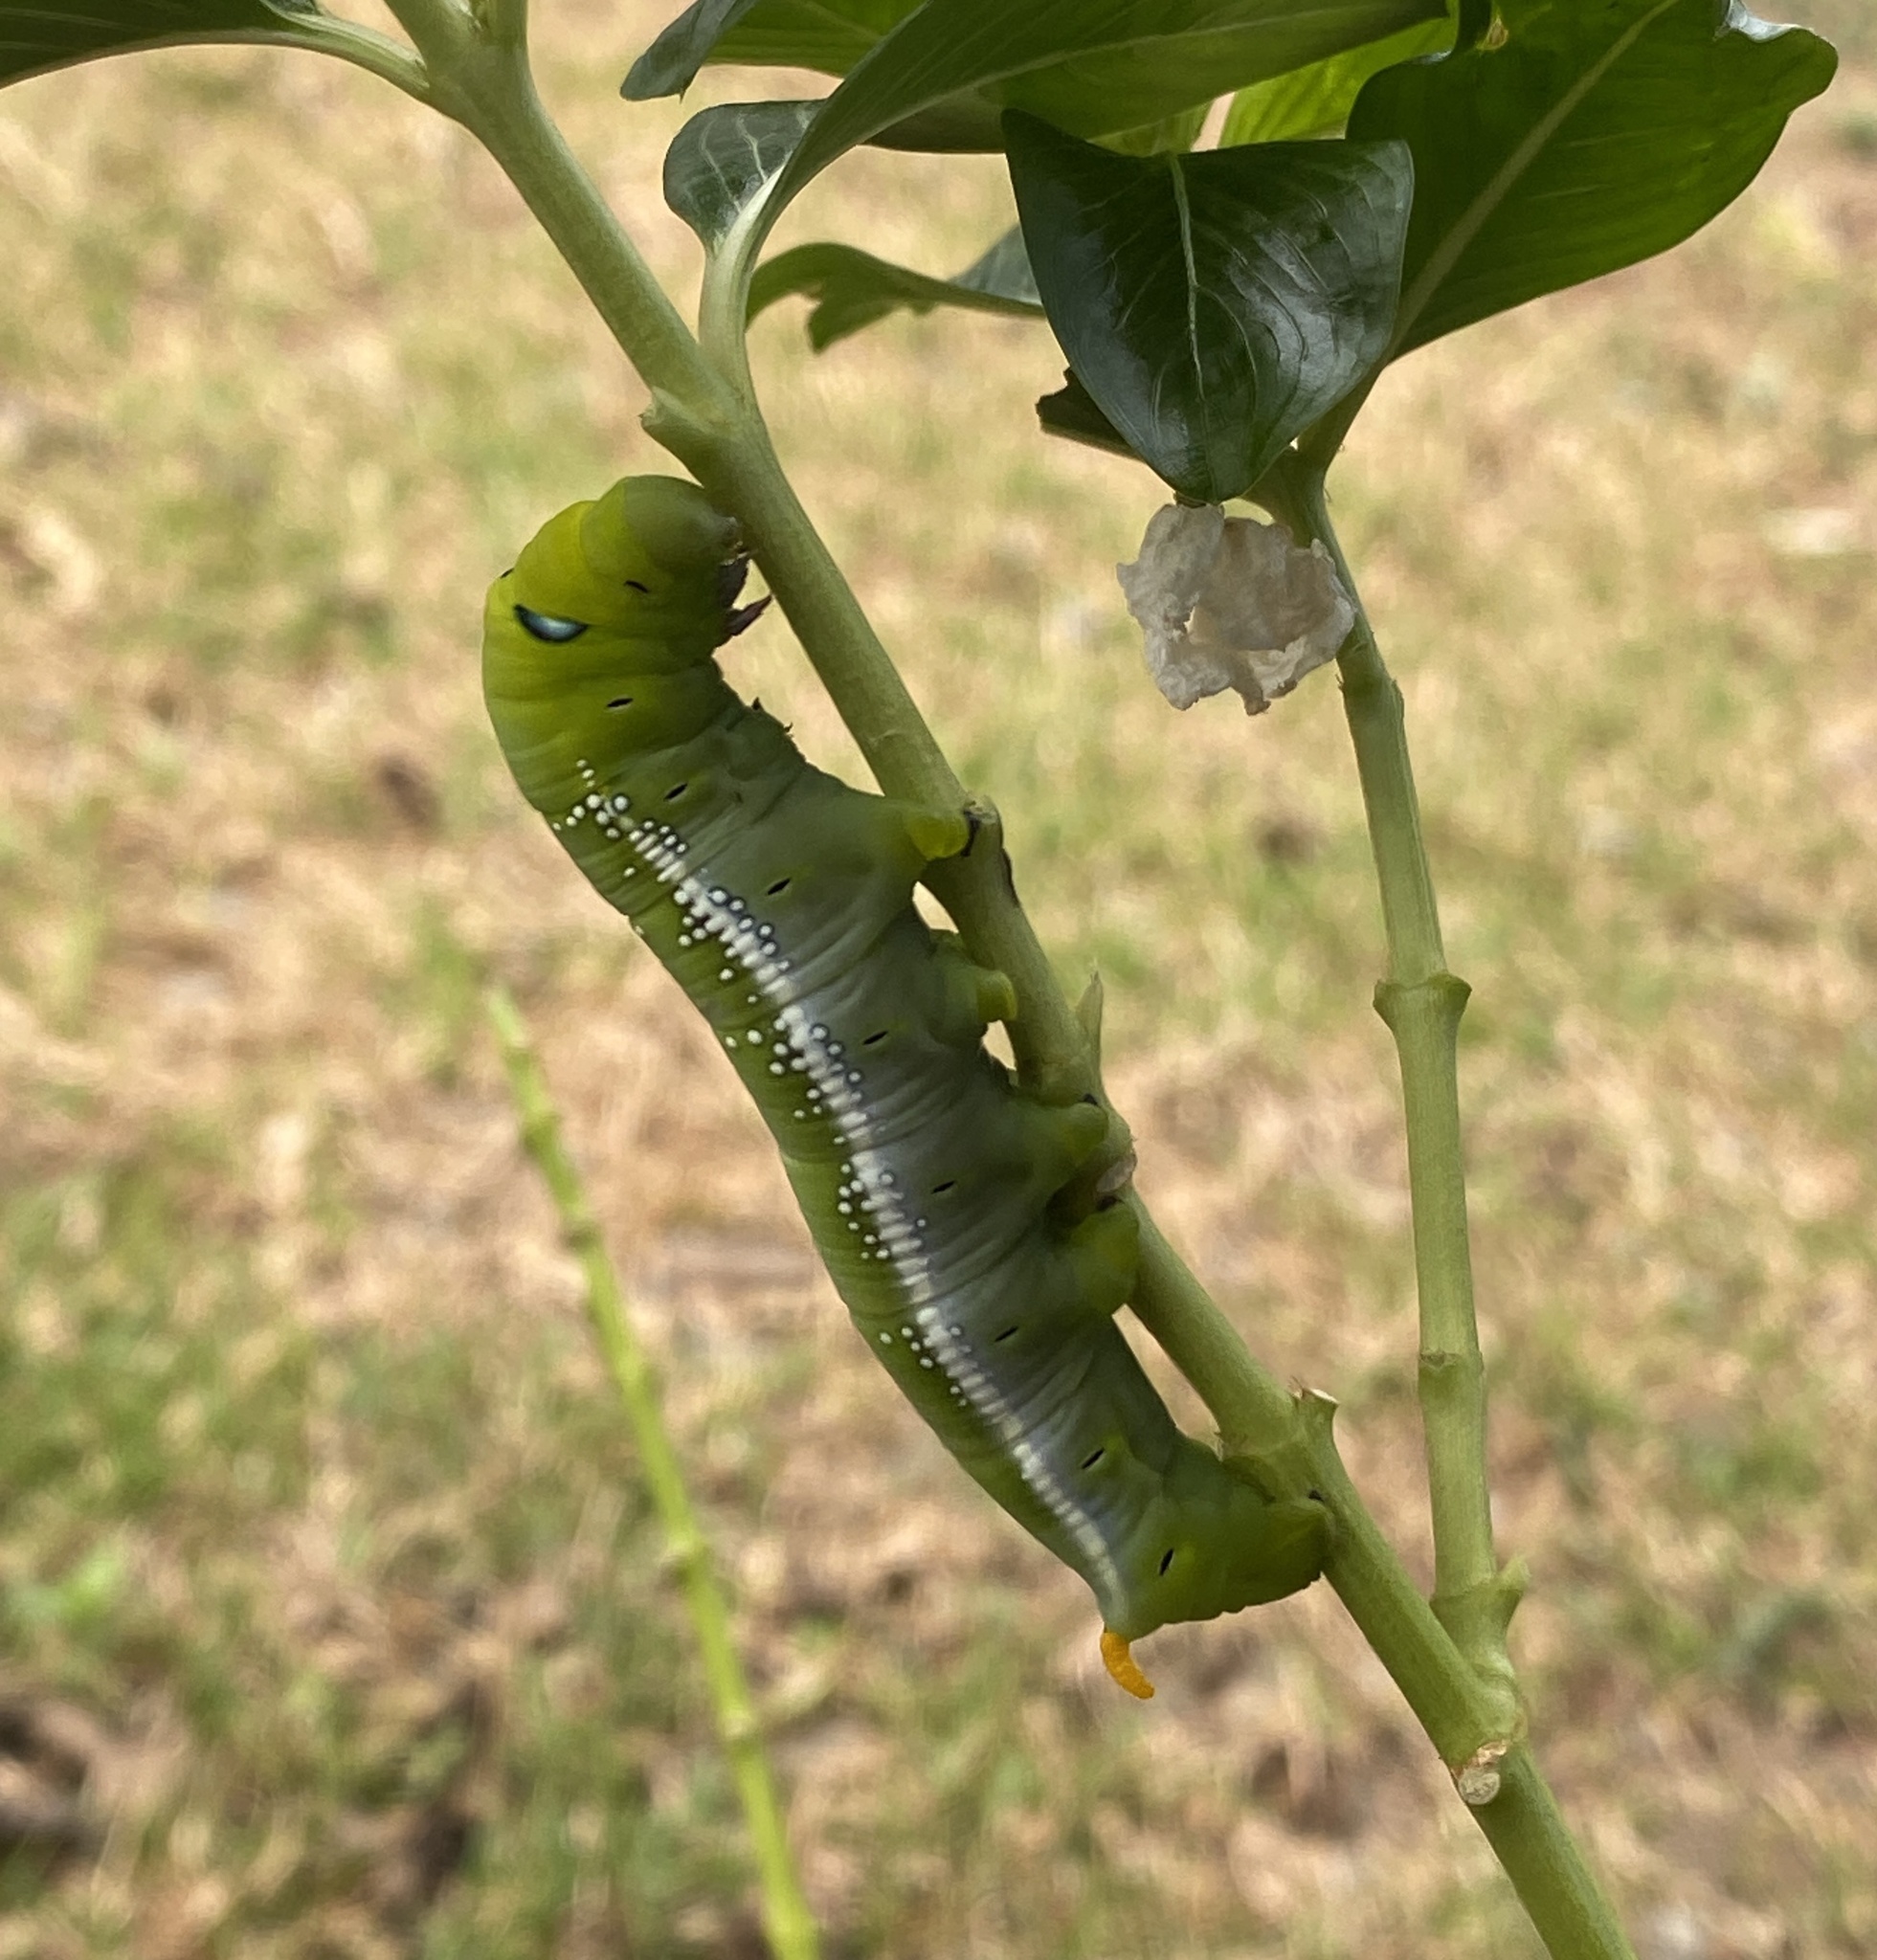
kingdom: Animalia
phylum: Arthropoda
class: Insecta
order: Lepidoptera
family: Sphingidae
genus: Daphnis
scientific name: Daphnis nerii
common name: Oleander hawk-moth
